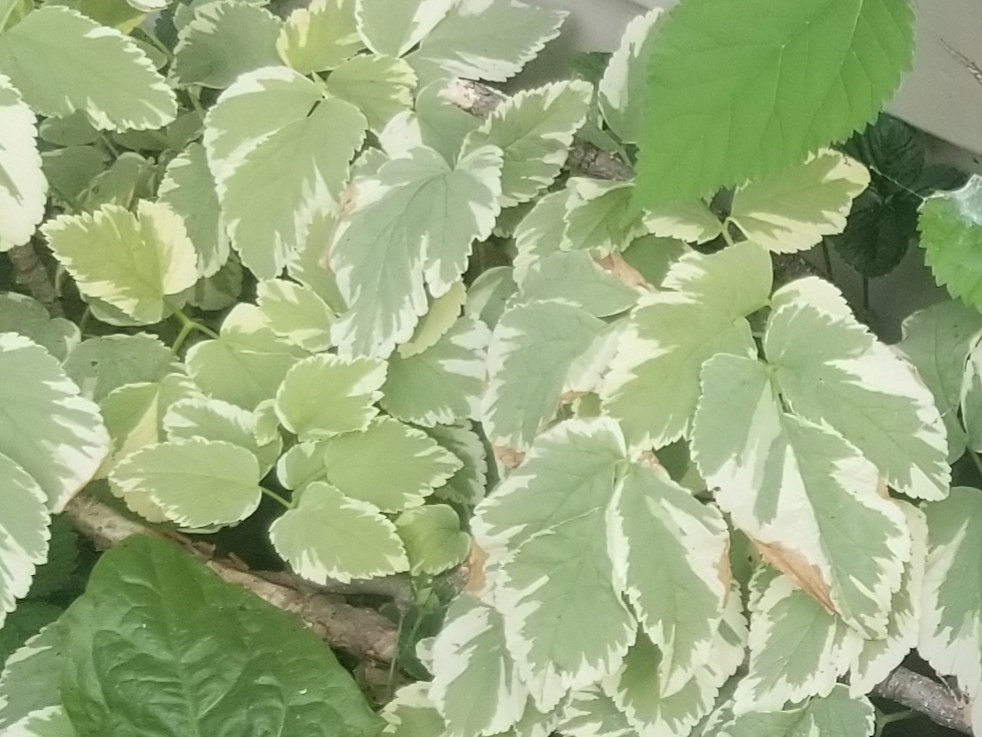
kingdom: Plantae
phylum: Tracheophyta
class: Magnoliopsida
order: Apiales
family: Apiaceae
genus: Aegopodium
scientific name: Aegopodium podagraria
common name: Ground-elder
